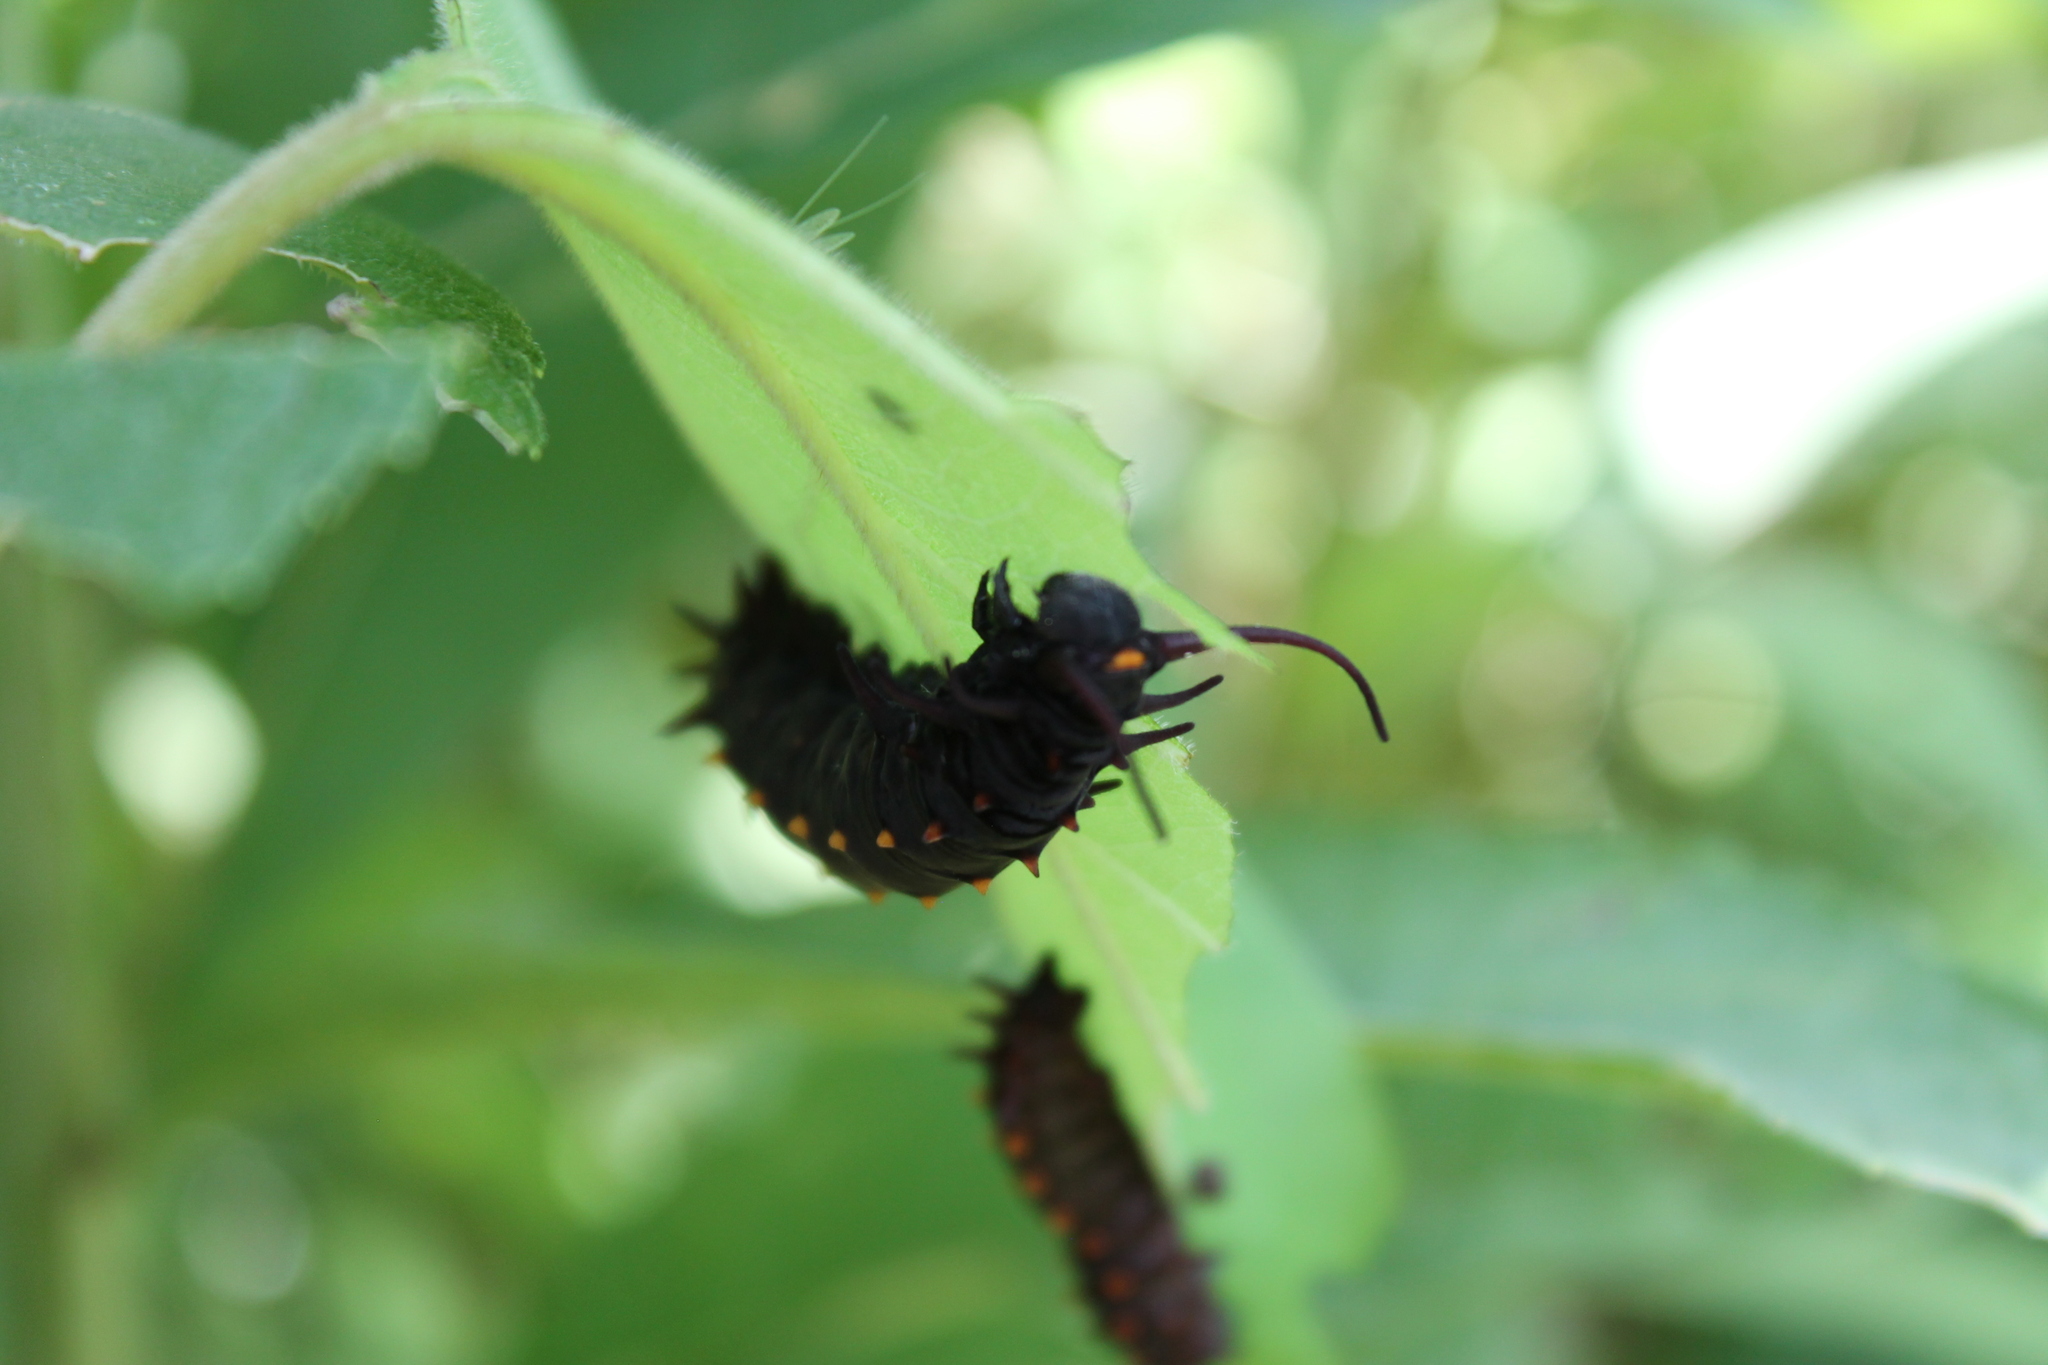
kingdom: Animalia
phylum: Arthropoda
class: Insecta
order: Lepidoptera
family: Papilionidae
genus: Battus
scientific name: Battus philenor
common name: Pipevine swallowtail
